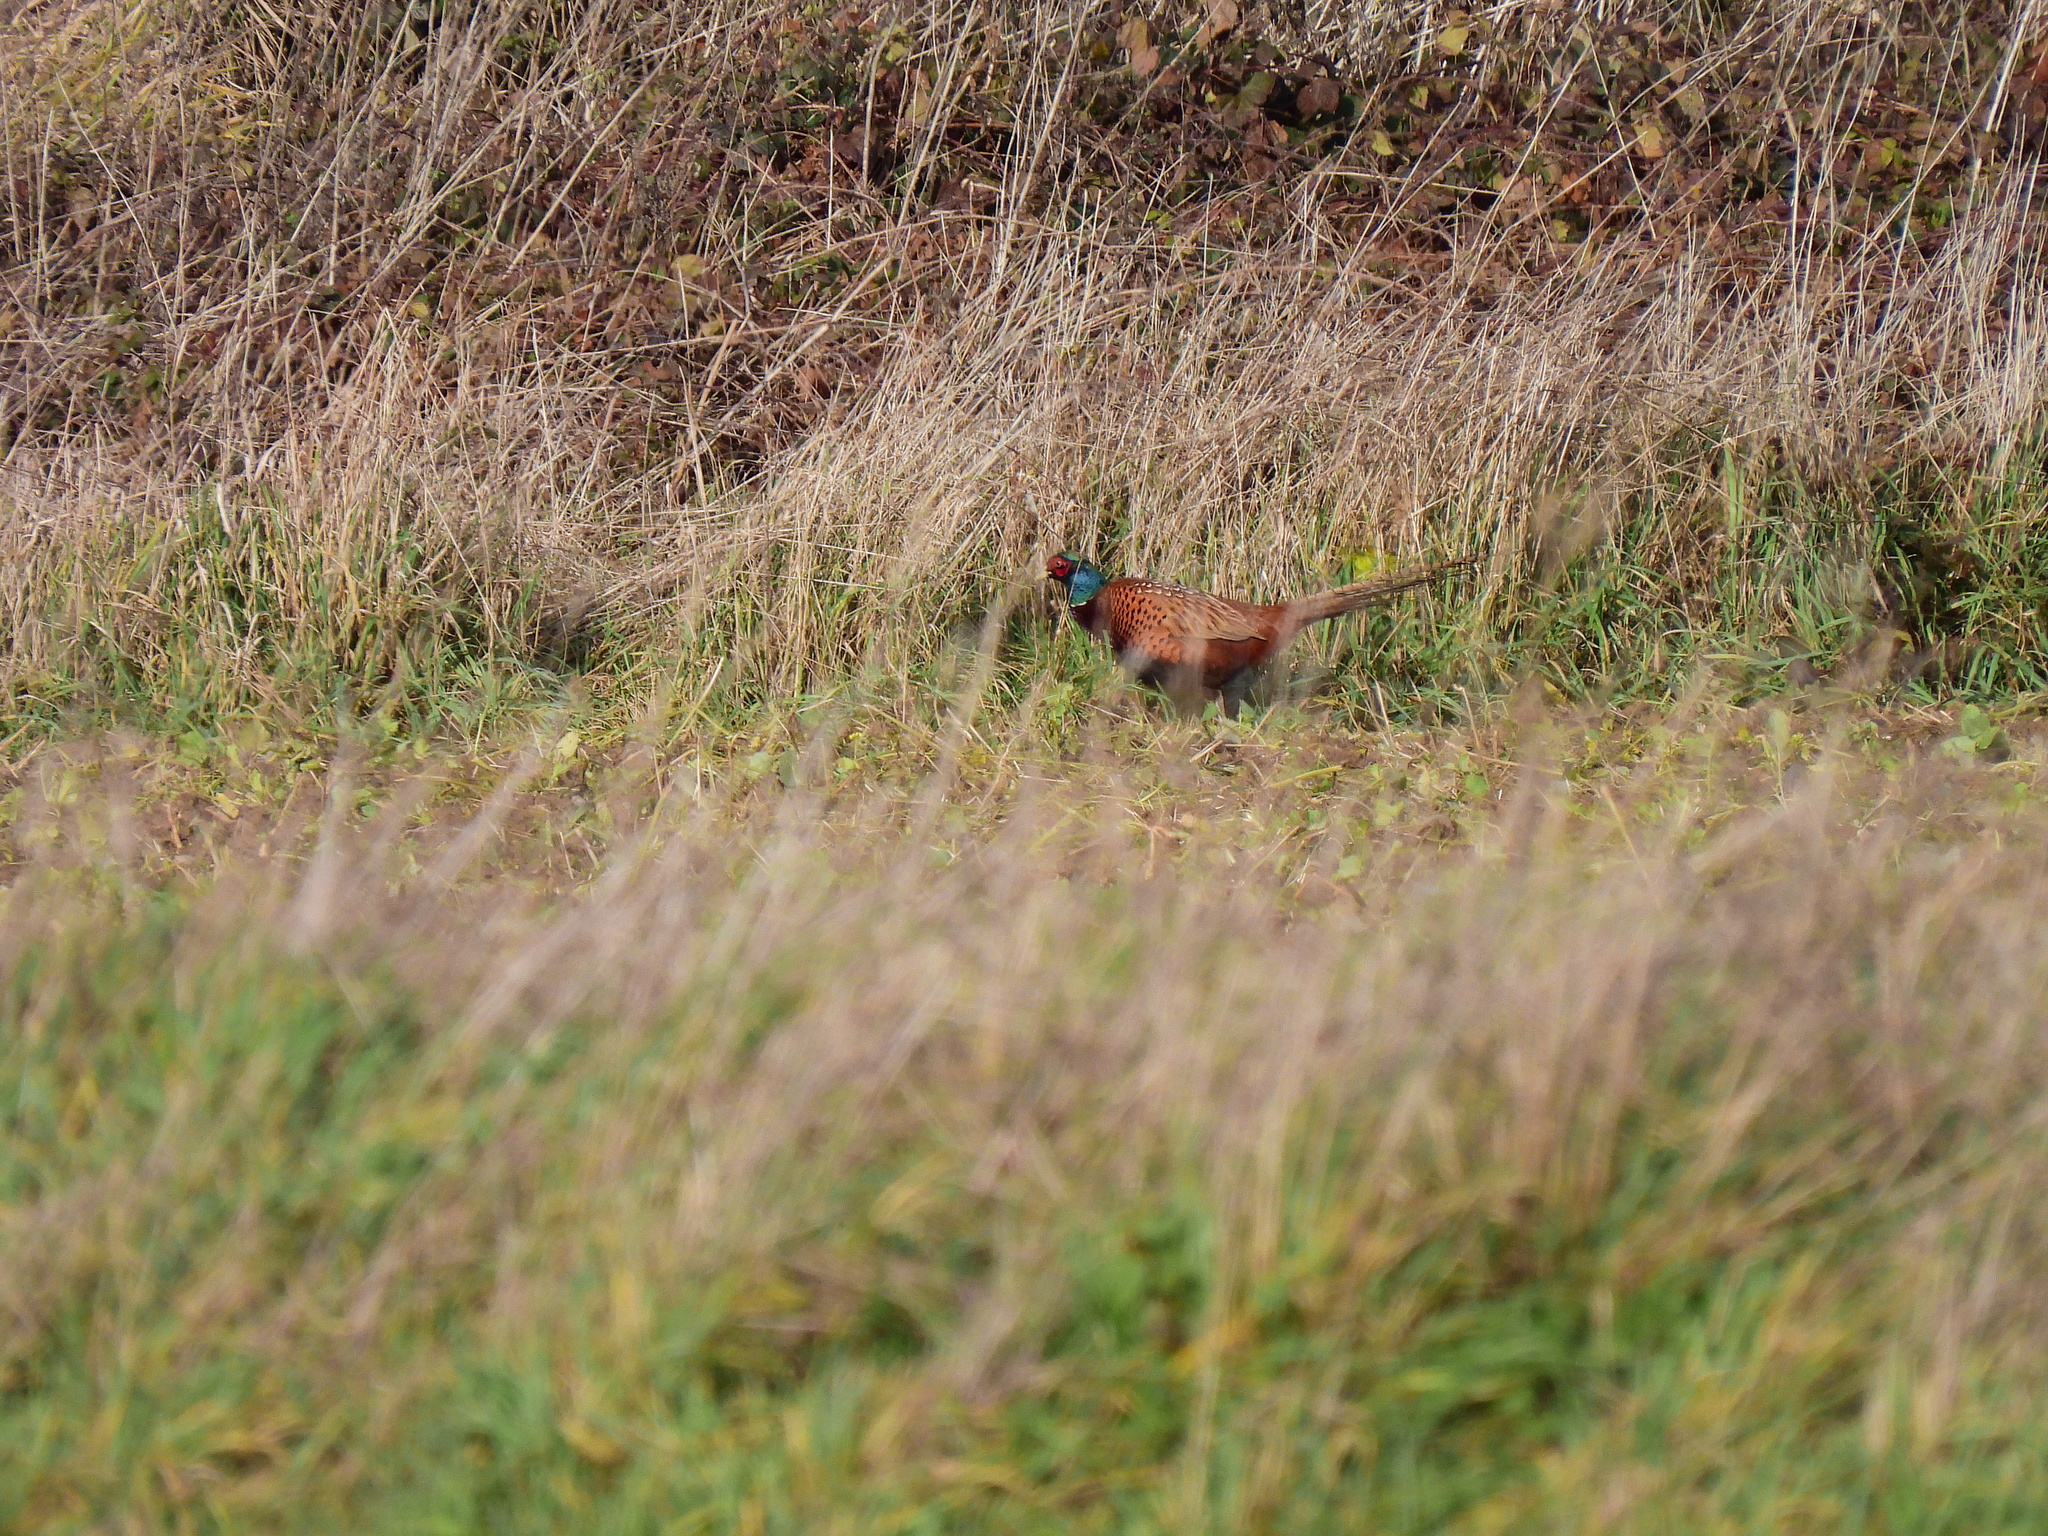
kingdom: Animalia
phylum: Chordata
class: Aves
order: Galliformes
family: Phasianidae
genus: Phasianus
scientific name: Phasianus colchicus
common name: Common pheasant
